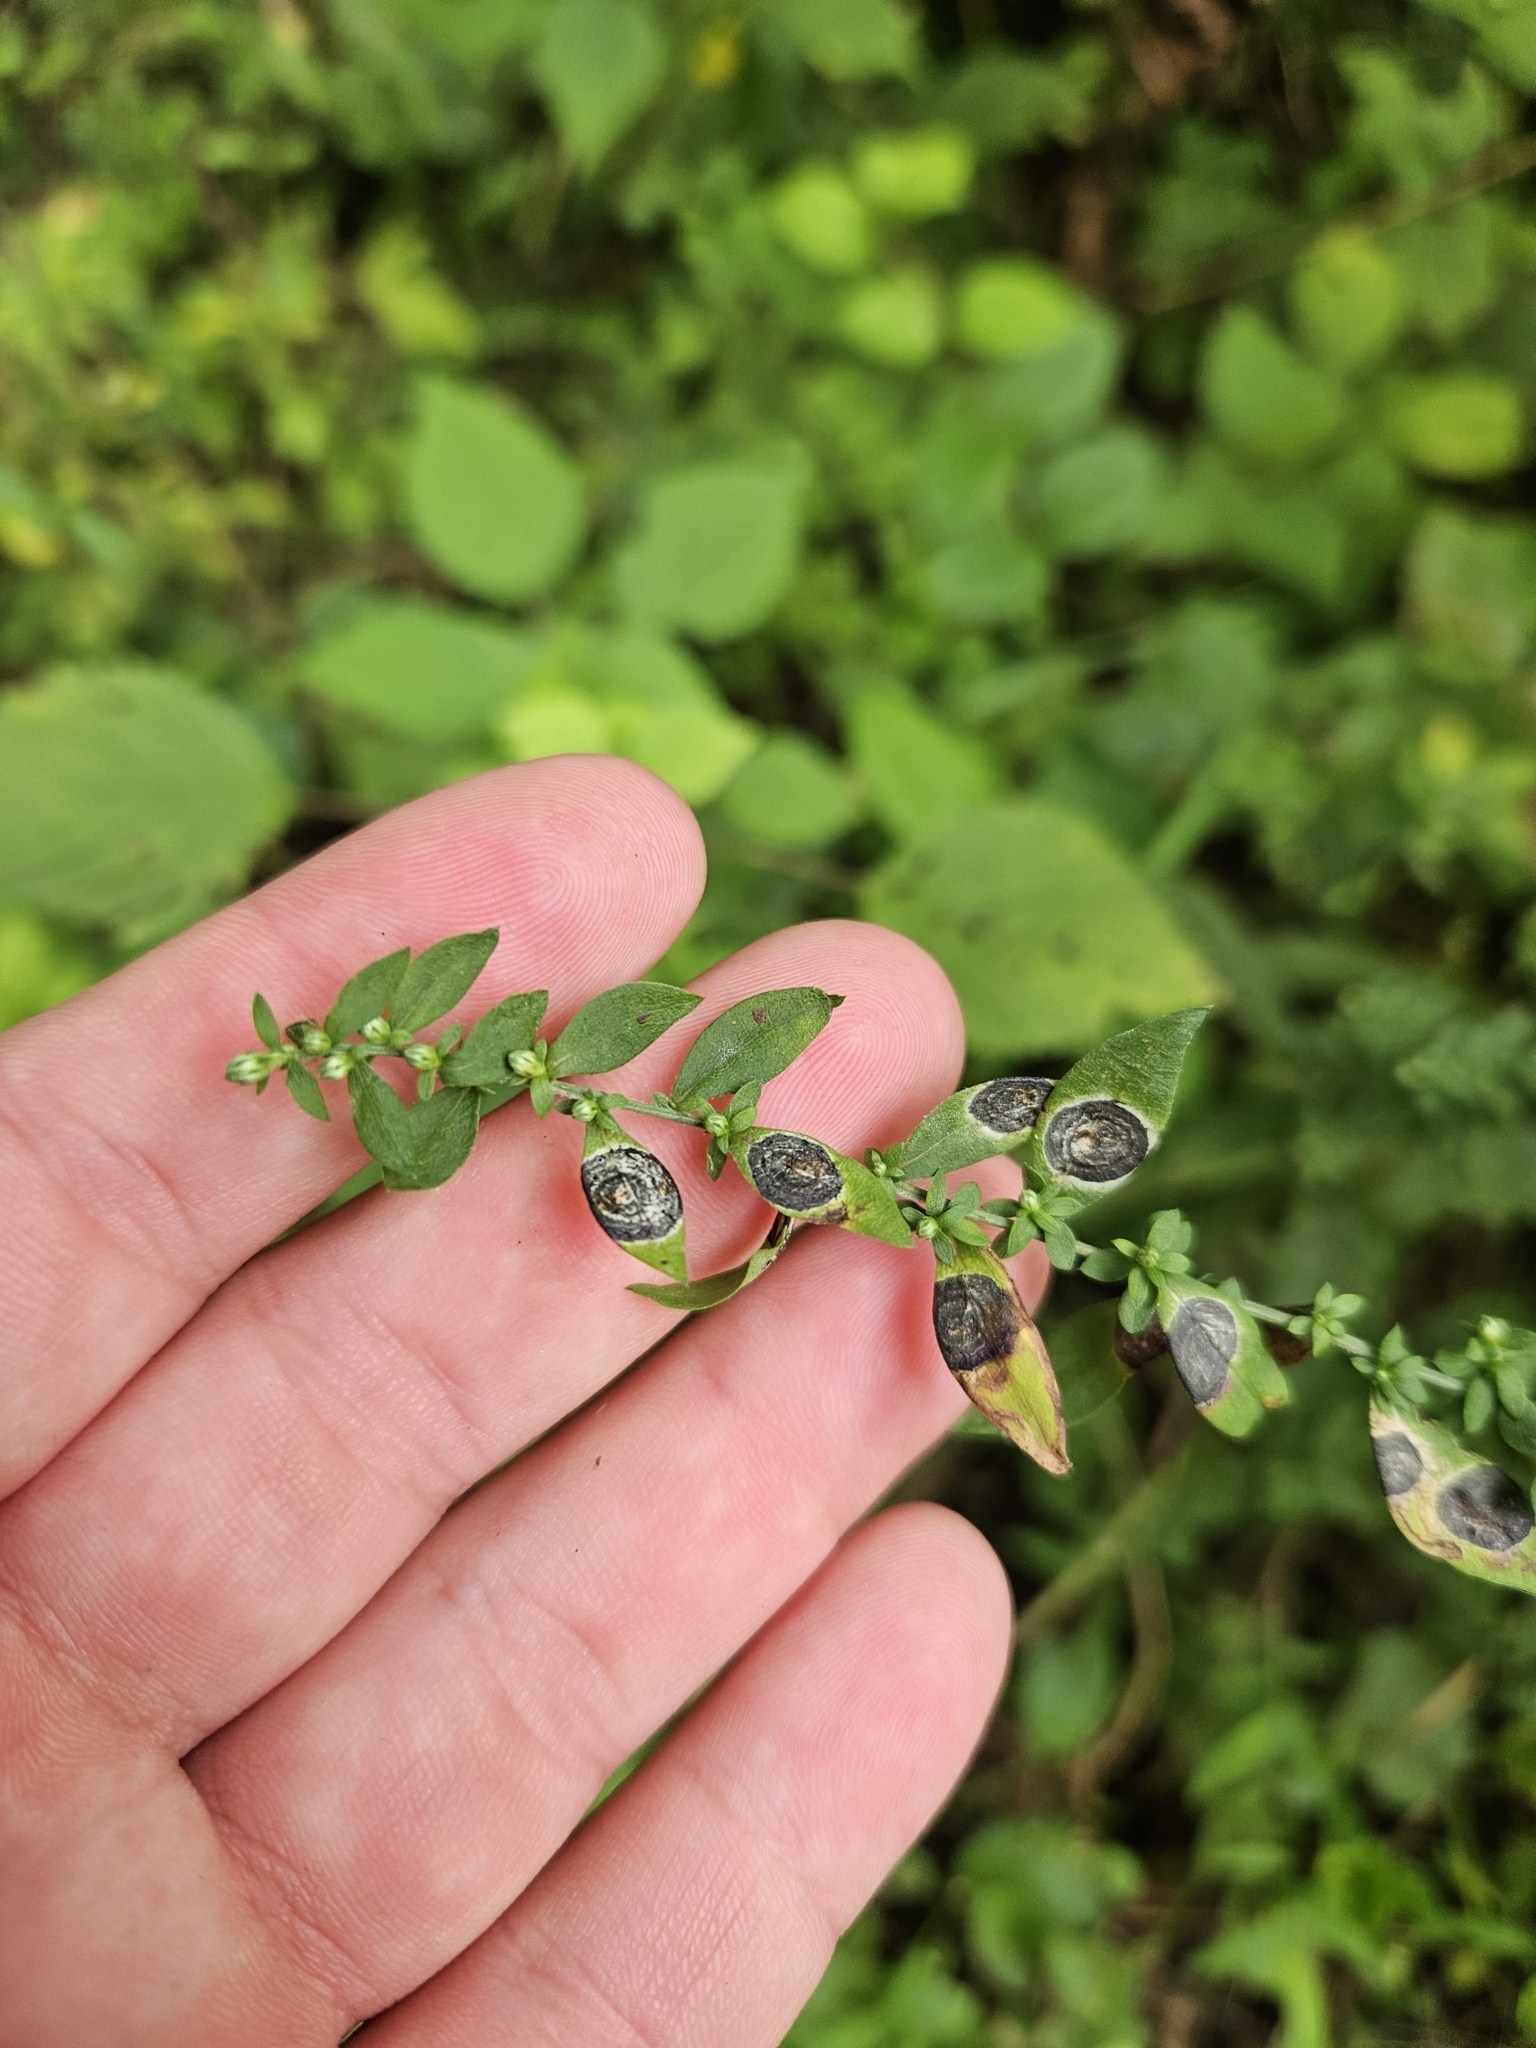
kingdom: Animalia
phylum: Arthropoda
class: Insecta
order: Diptera
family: Cecidomyiidae
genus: Asteromyia
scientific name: Asteromyia laeviana
